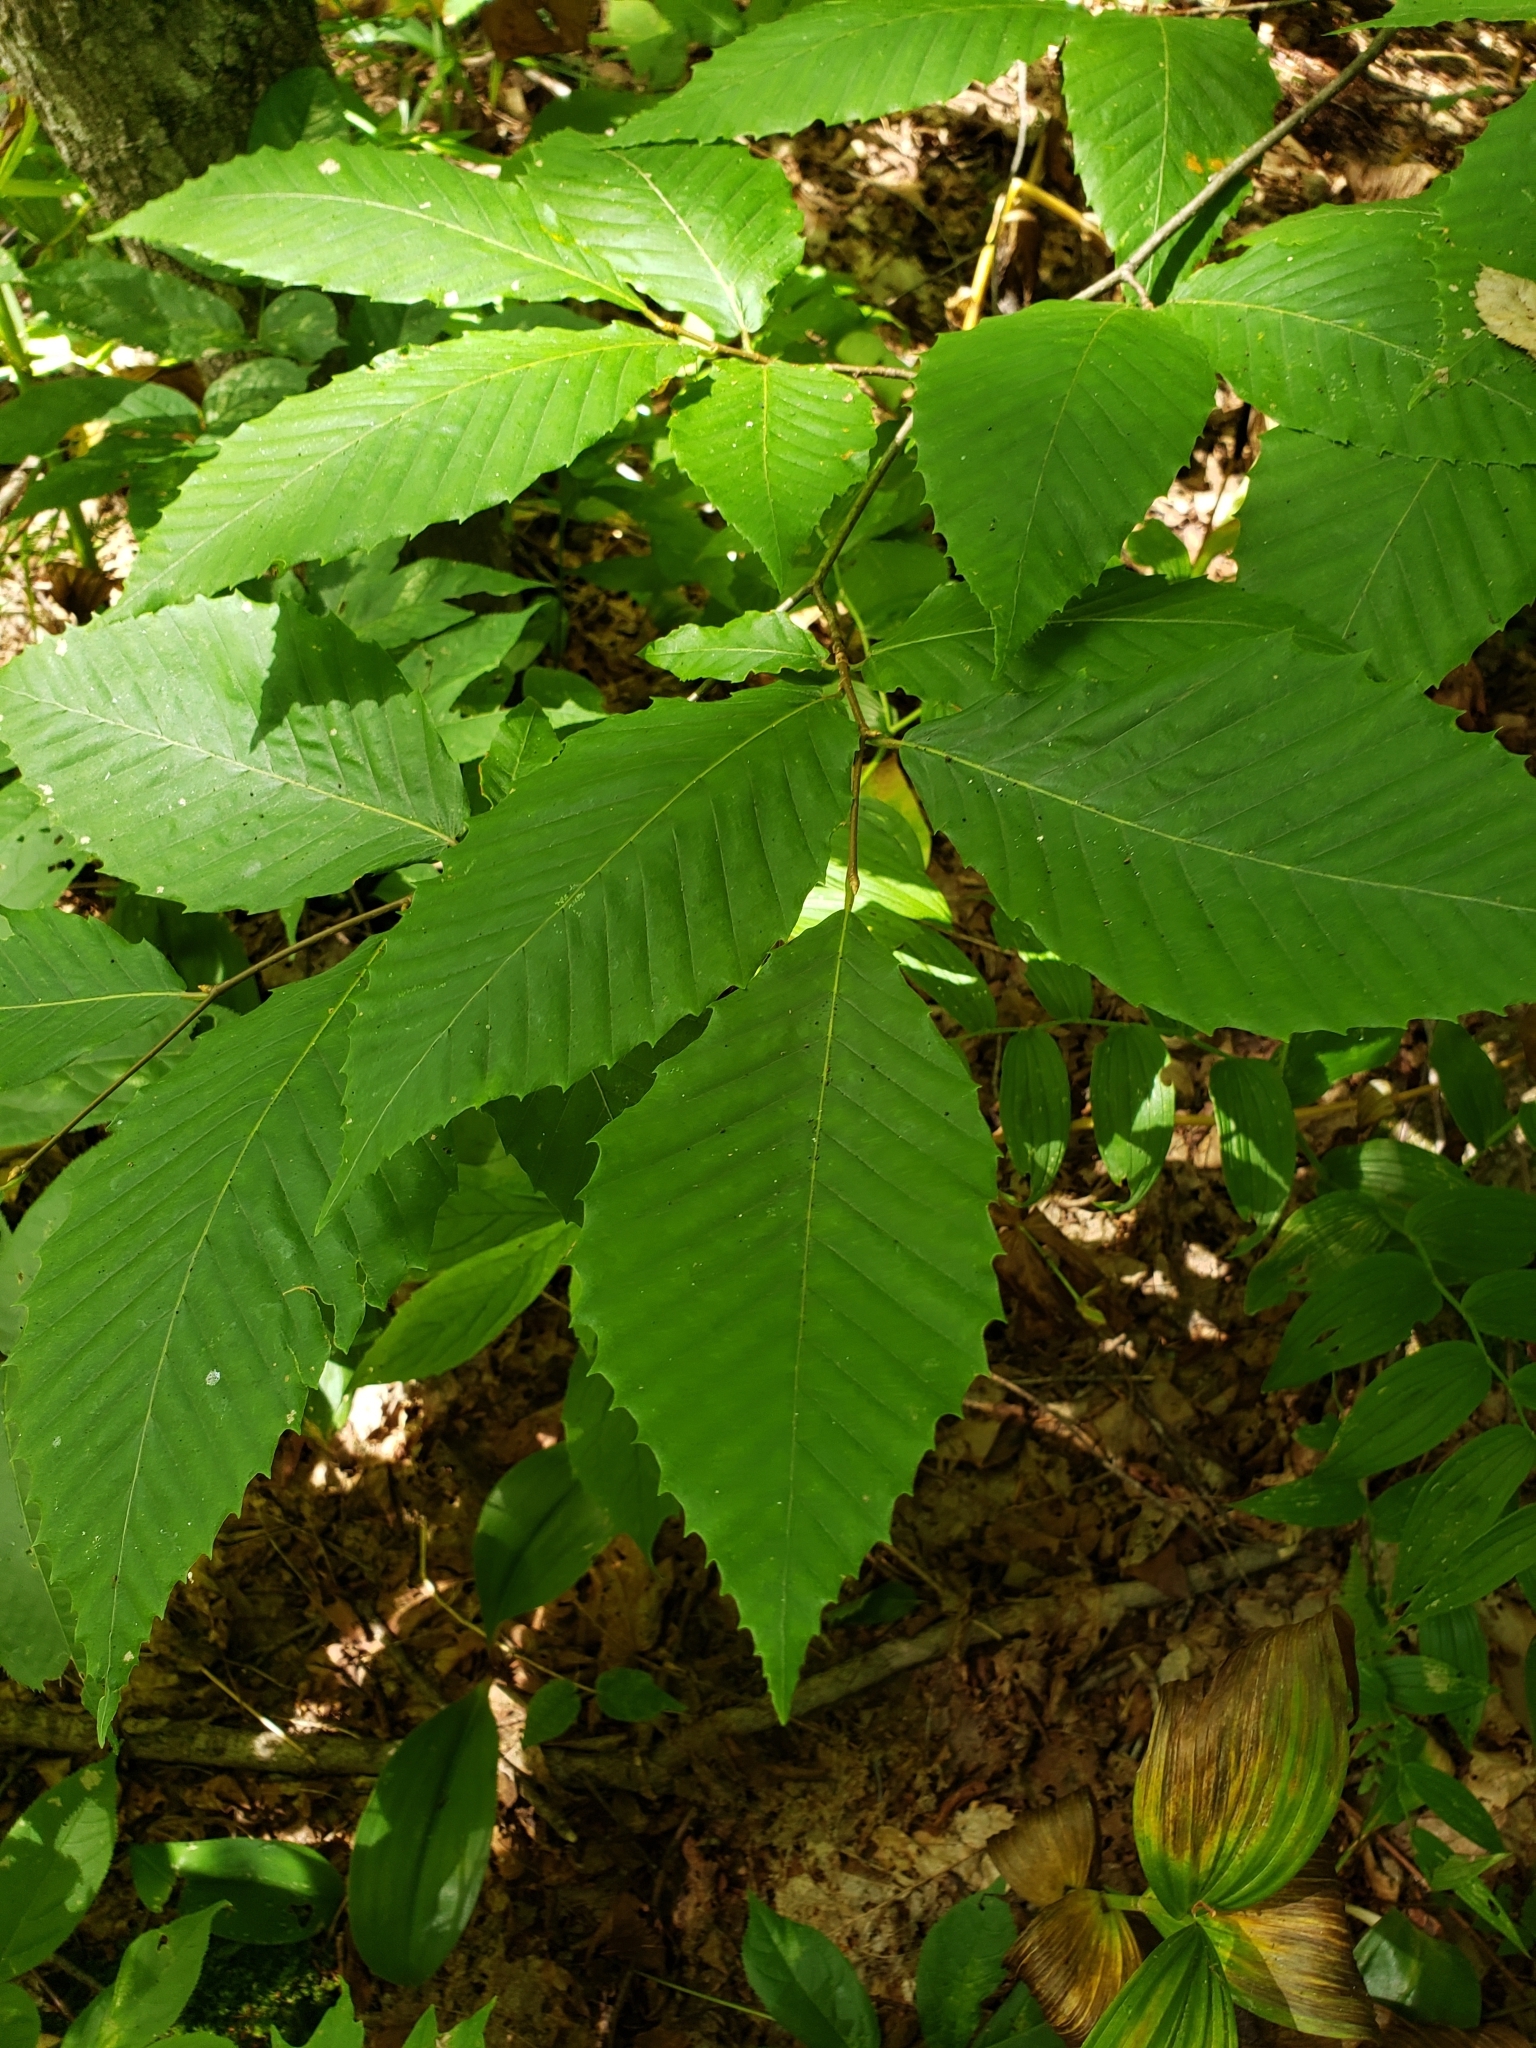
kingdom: Plantae
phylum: Tracheophyta
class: Magnoliopsida
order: Fagales
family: Fagaceae
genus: Fagus
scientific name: Fagus grandifolia
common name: American beech
